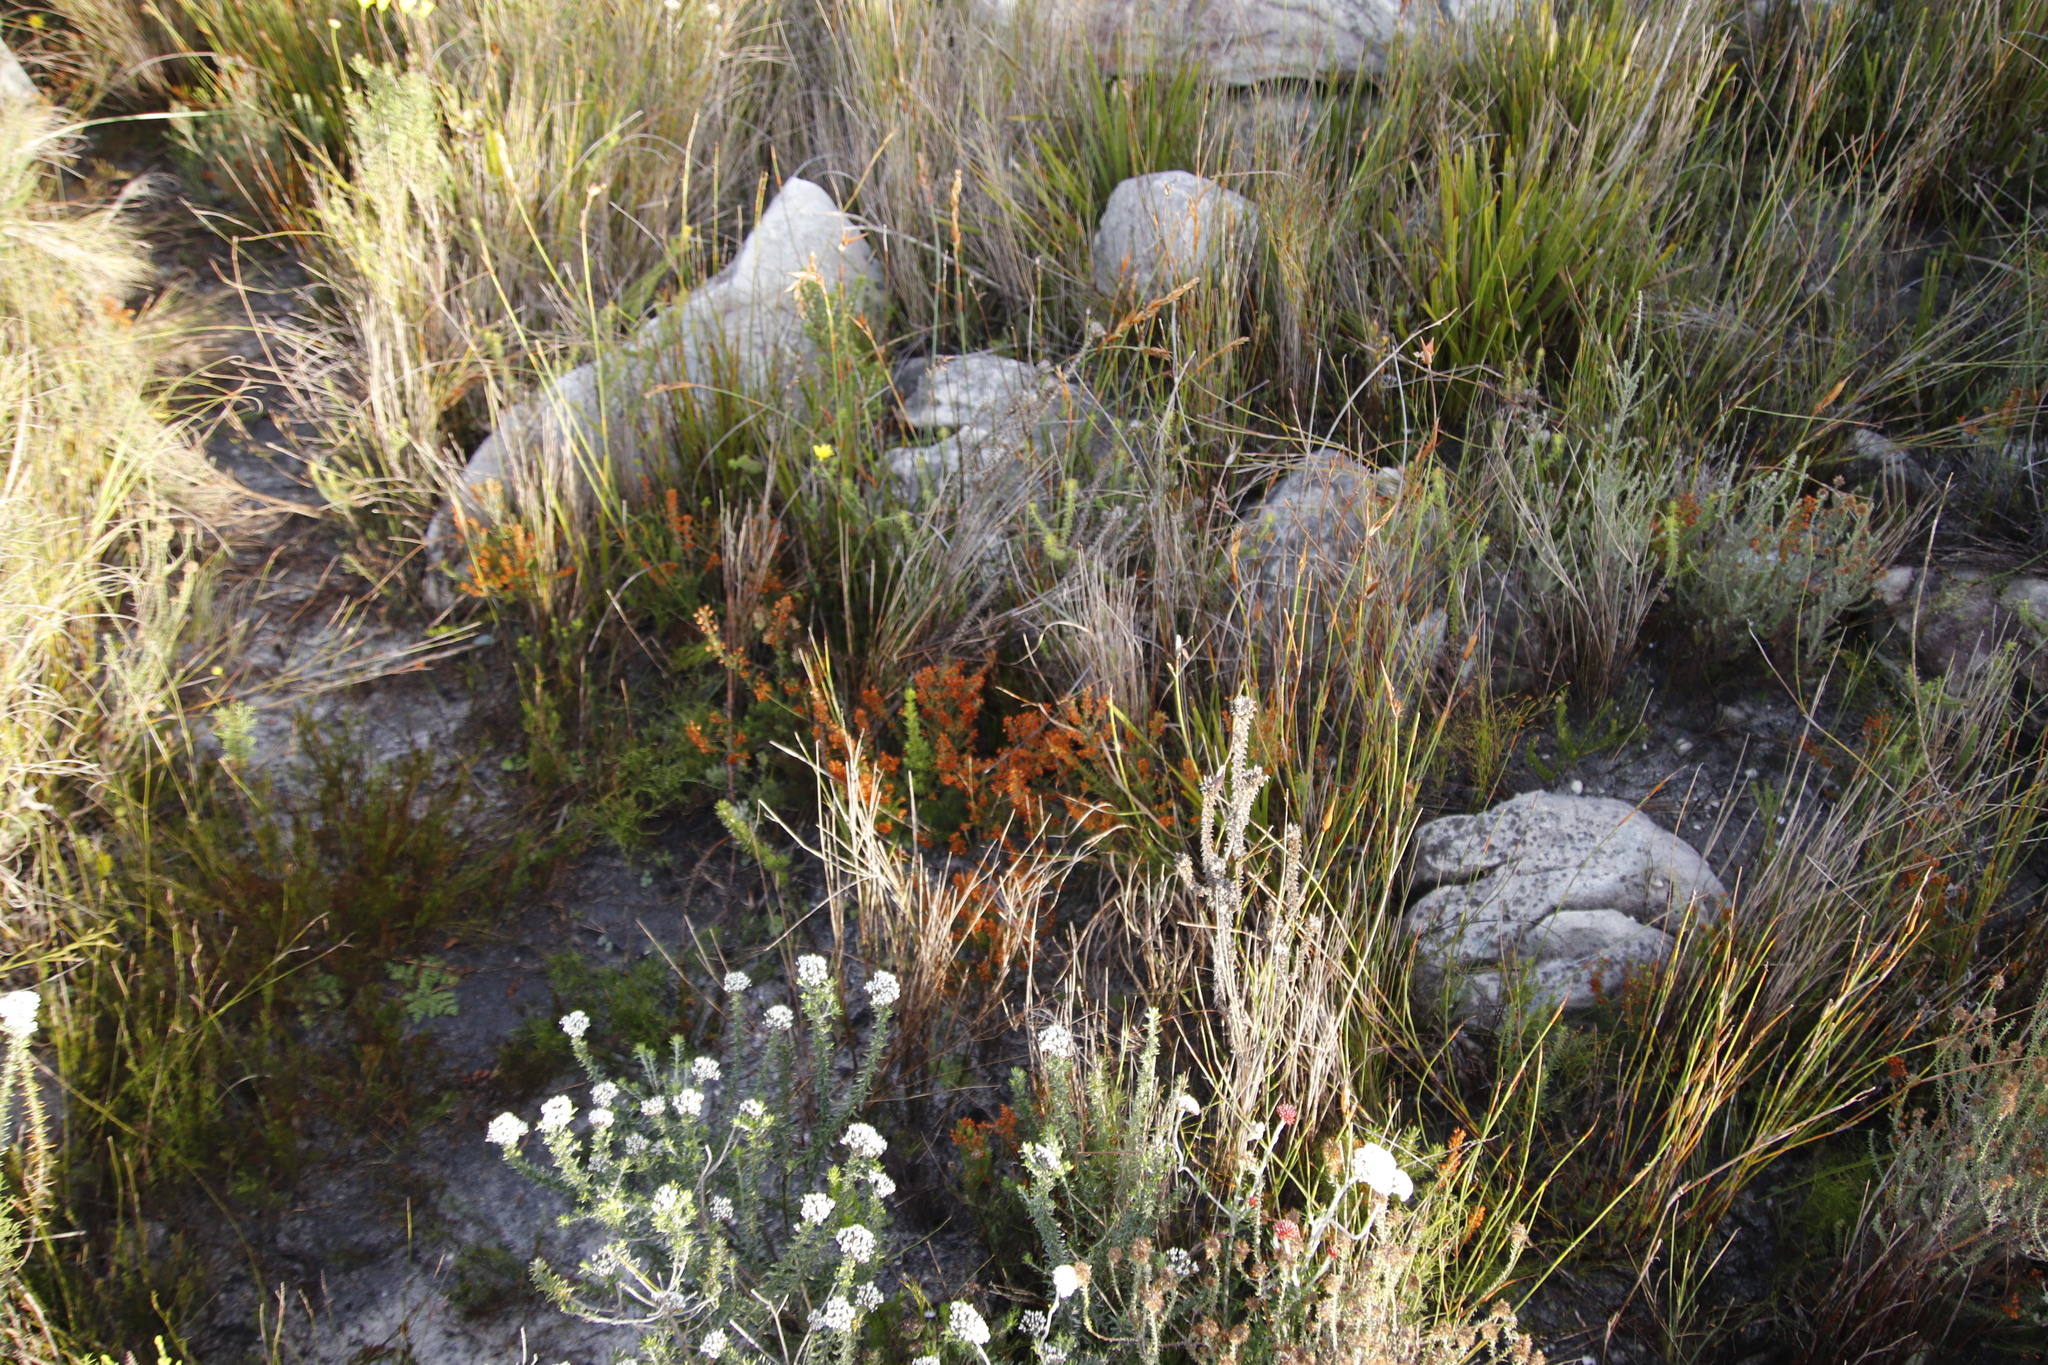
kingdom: Plantae
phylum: Tracheophyta
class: Magnoliopsida
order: Ericales
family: Ericaceae
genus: Erica
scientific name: Erica nudiflora
